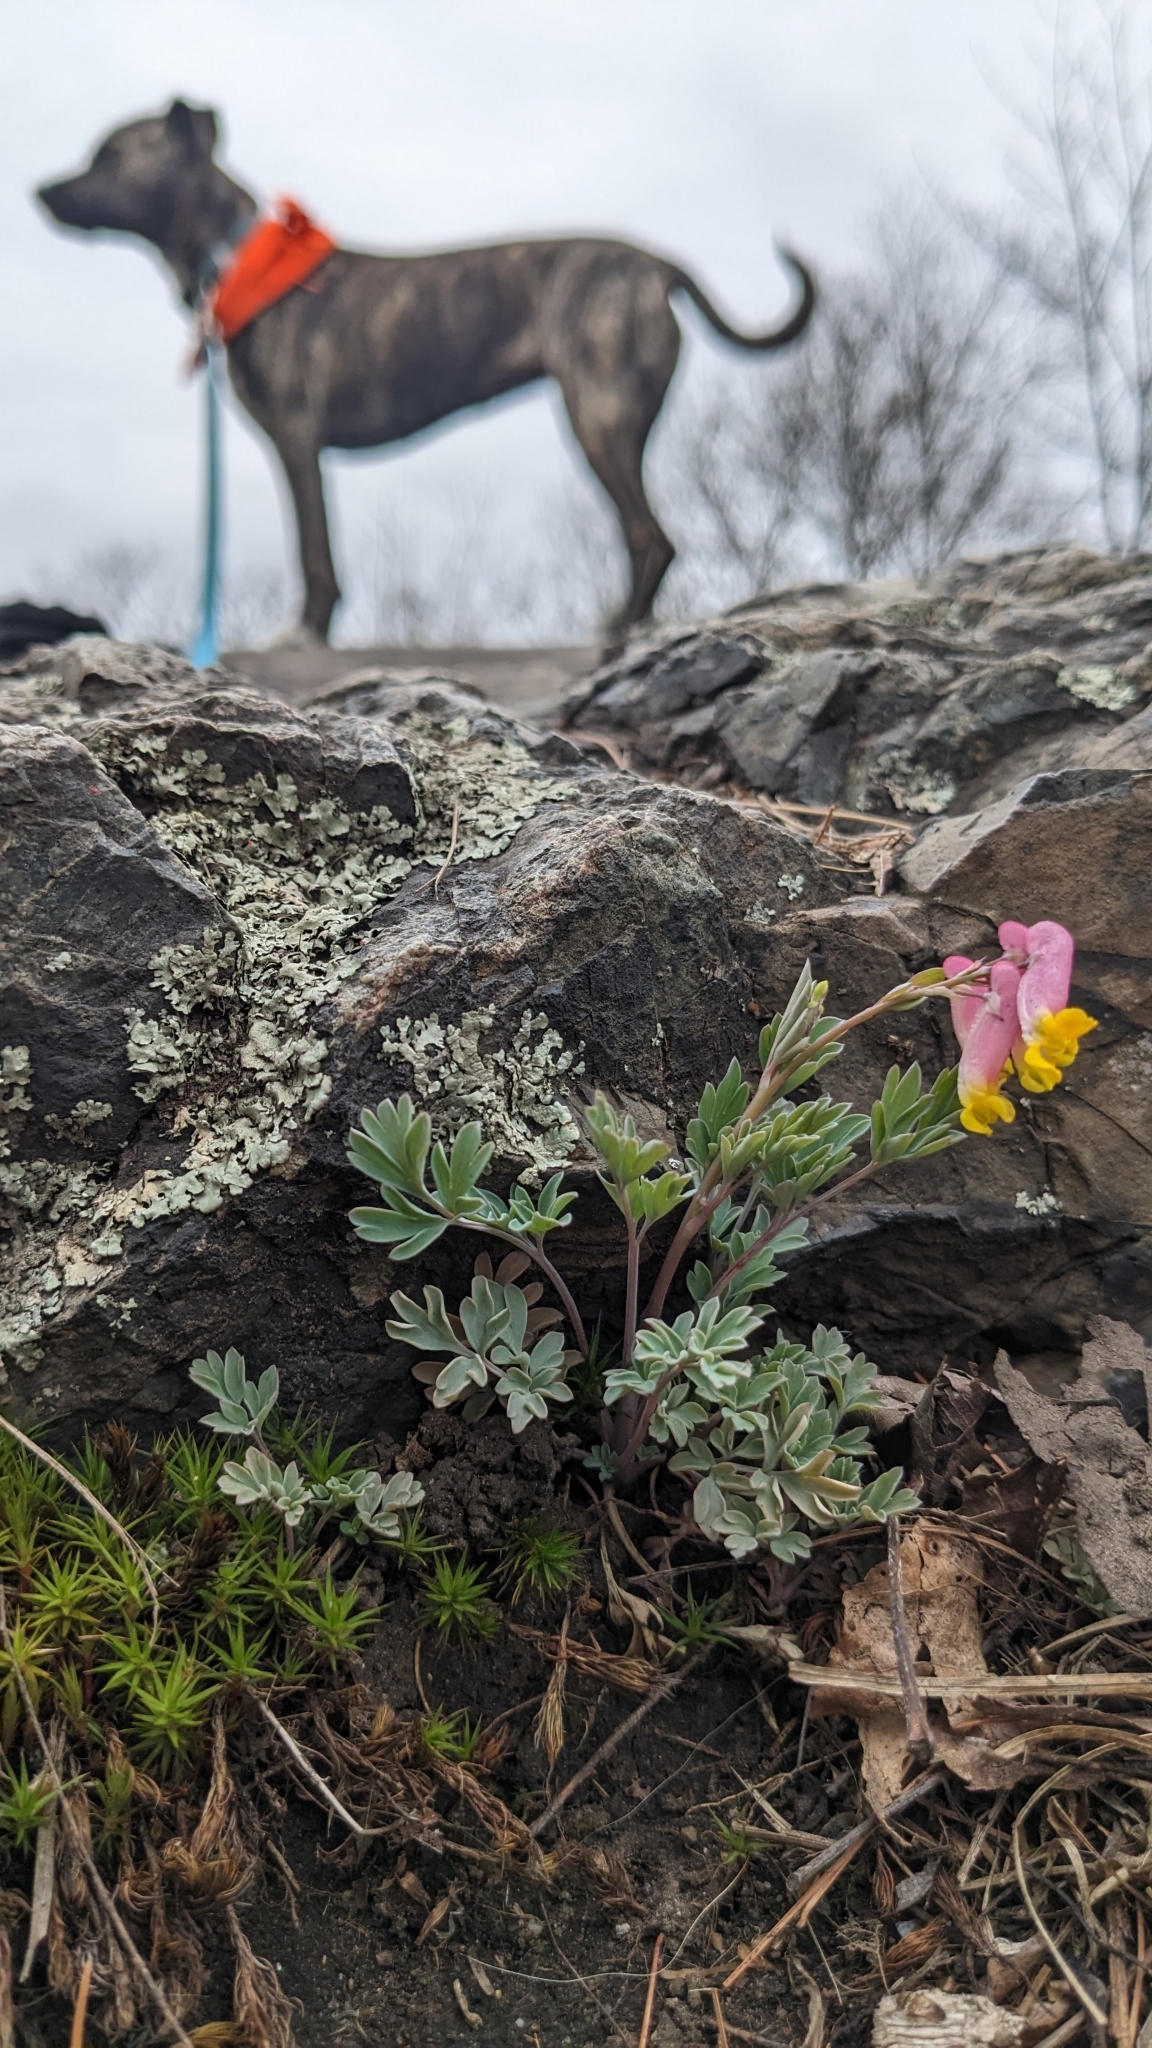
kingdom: Plantae
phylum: Tracheophyta
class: Magnoliopsida
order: Ranunculales
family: Papaveraceae
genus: Capnoides
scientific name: Capnoides sempervirens
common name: Rock harlequin
